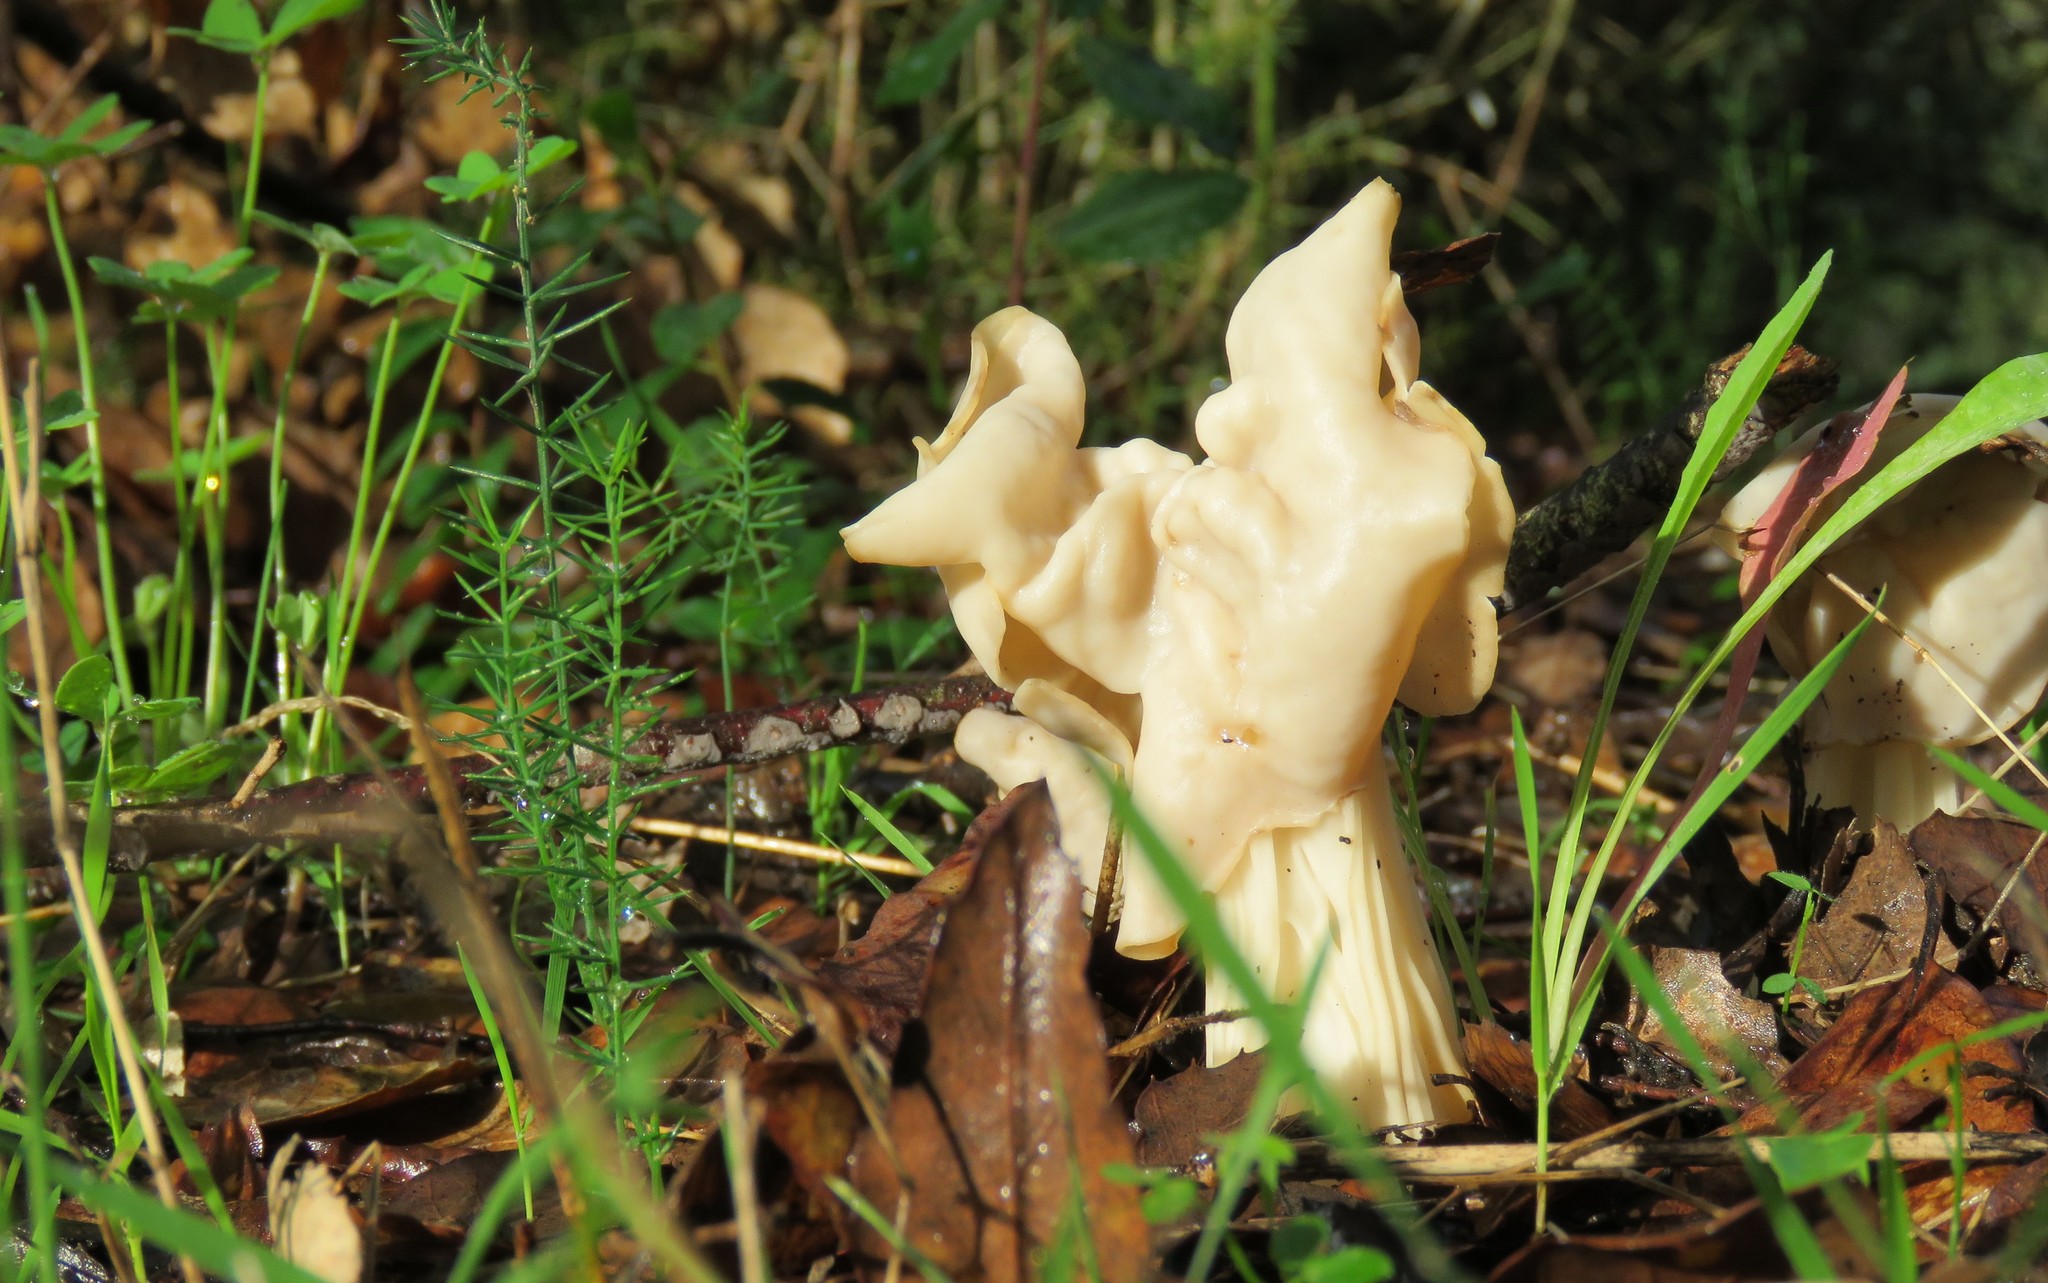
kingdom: Fungi
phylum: Ascomycota
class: Pezizomycetes
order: Pezizales
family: Helvellaceae
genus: Helvella
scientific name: Helvella crispa
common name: White saddle
